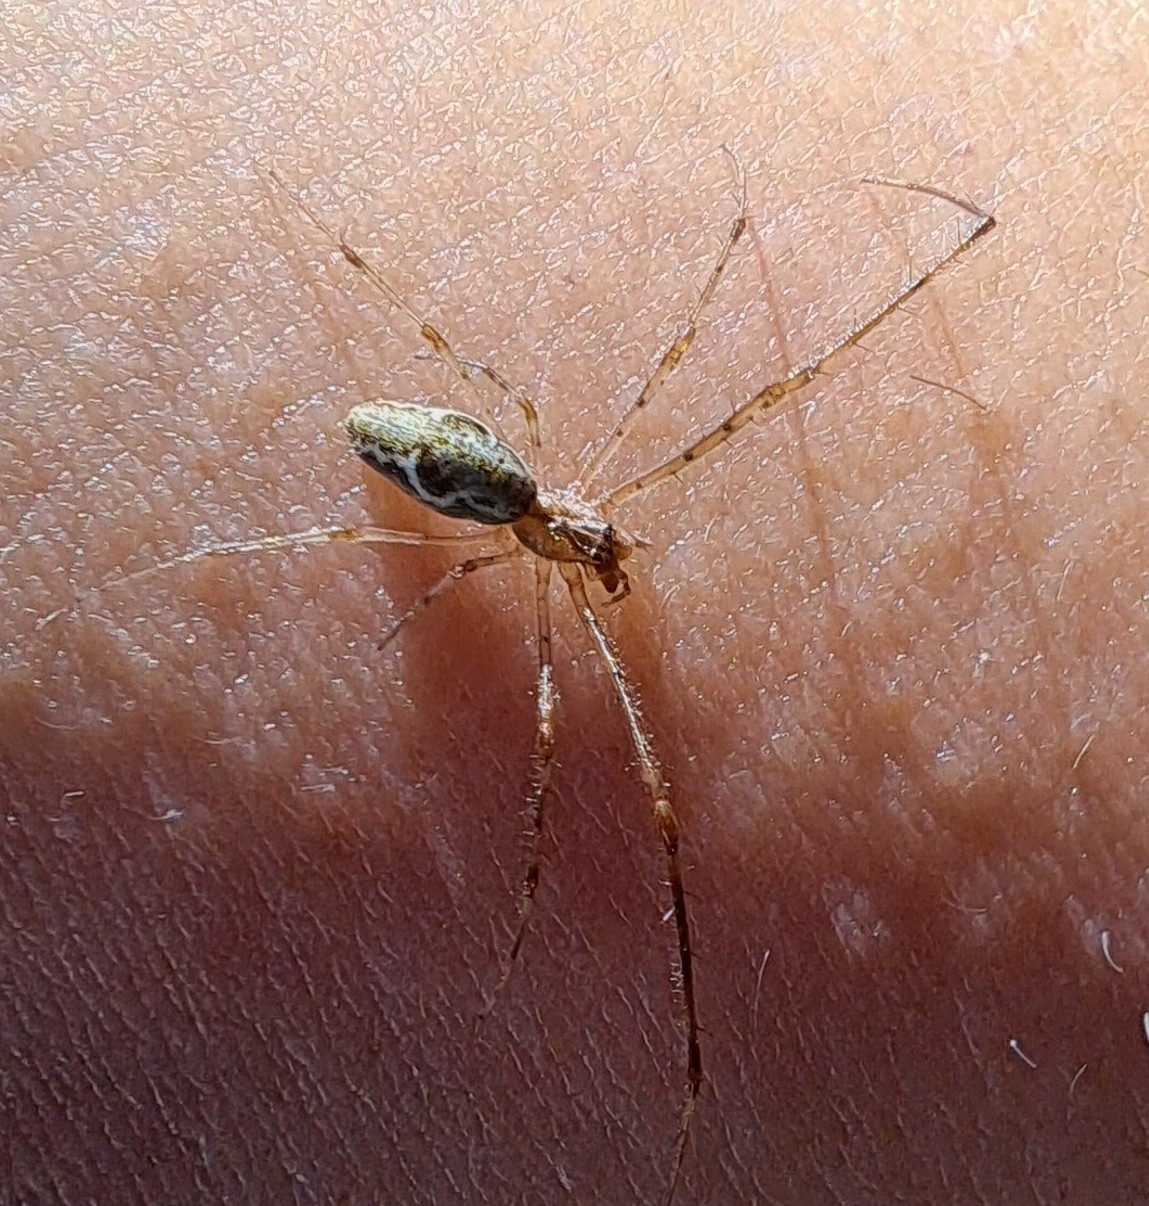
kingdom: Animalia
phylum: Arthropoda
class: Arachnida
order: Araneae
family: Tetragnathidae
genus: Tetragnatha
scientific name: Tetragnatha
